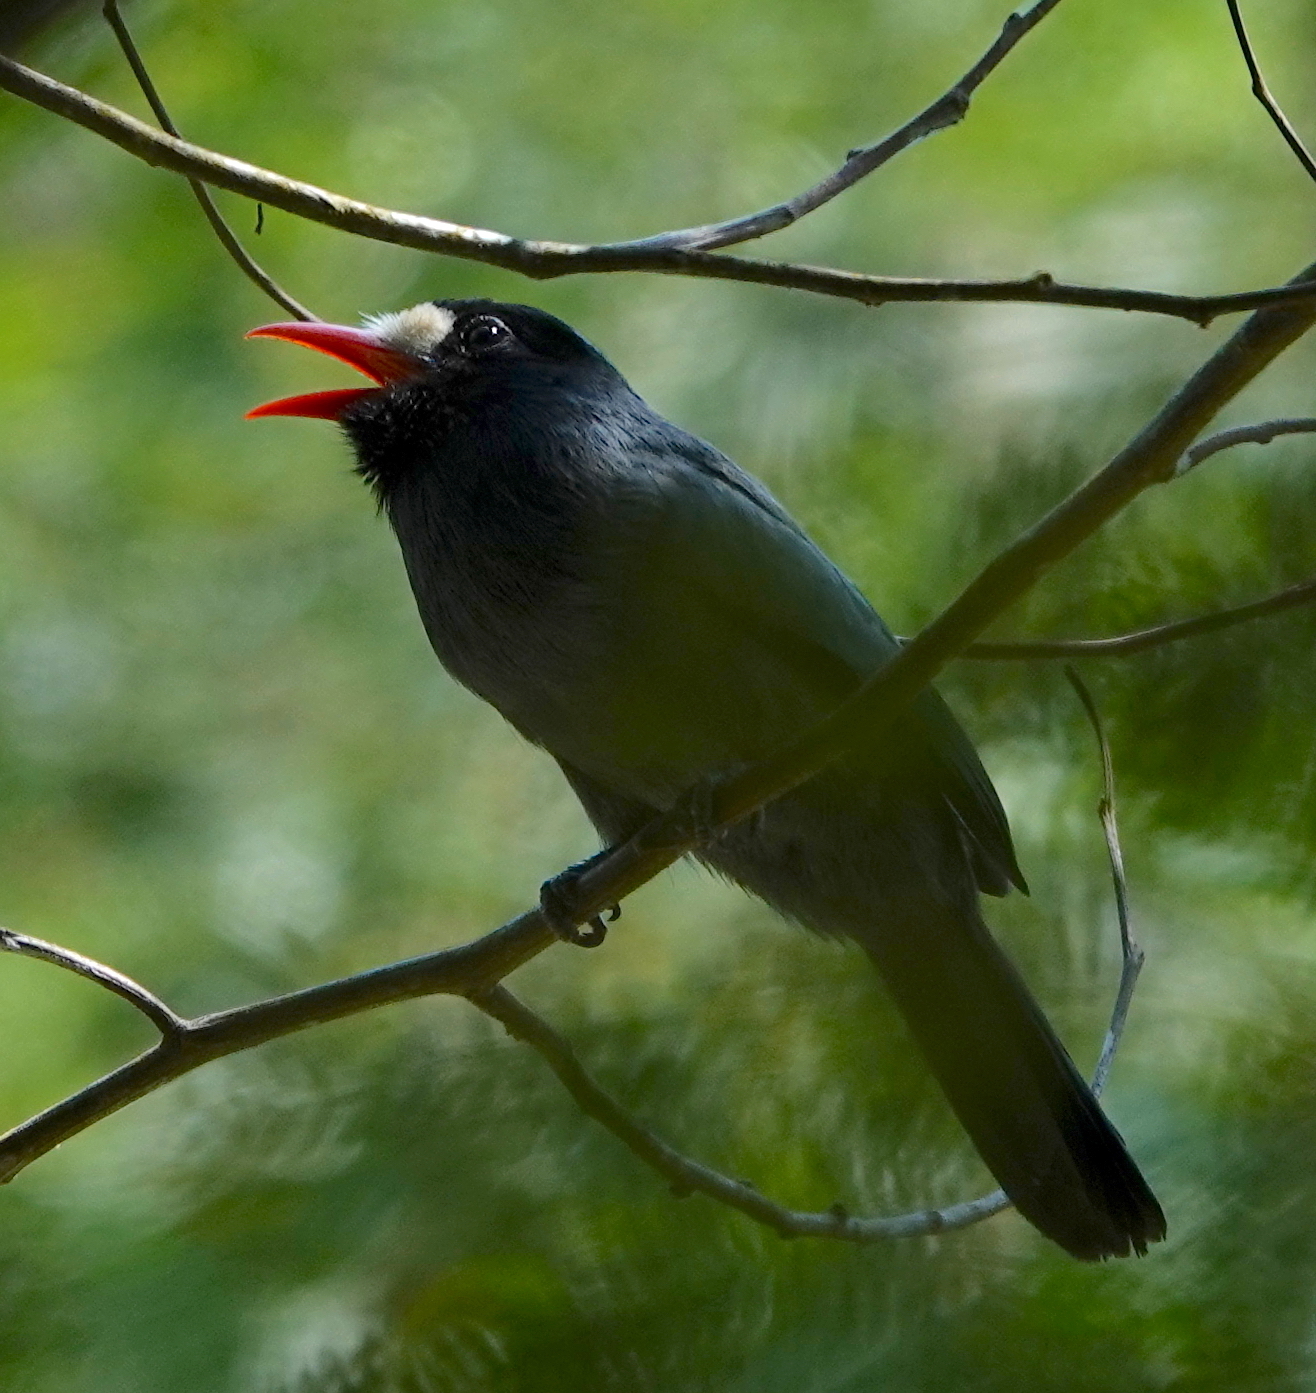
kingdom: Animalia
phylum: Chordata
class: Aves
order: Piciformes
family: Bucconidae
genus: Monasa
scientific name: Monasa morphoeus
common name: White-fronted nunbird
